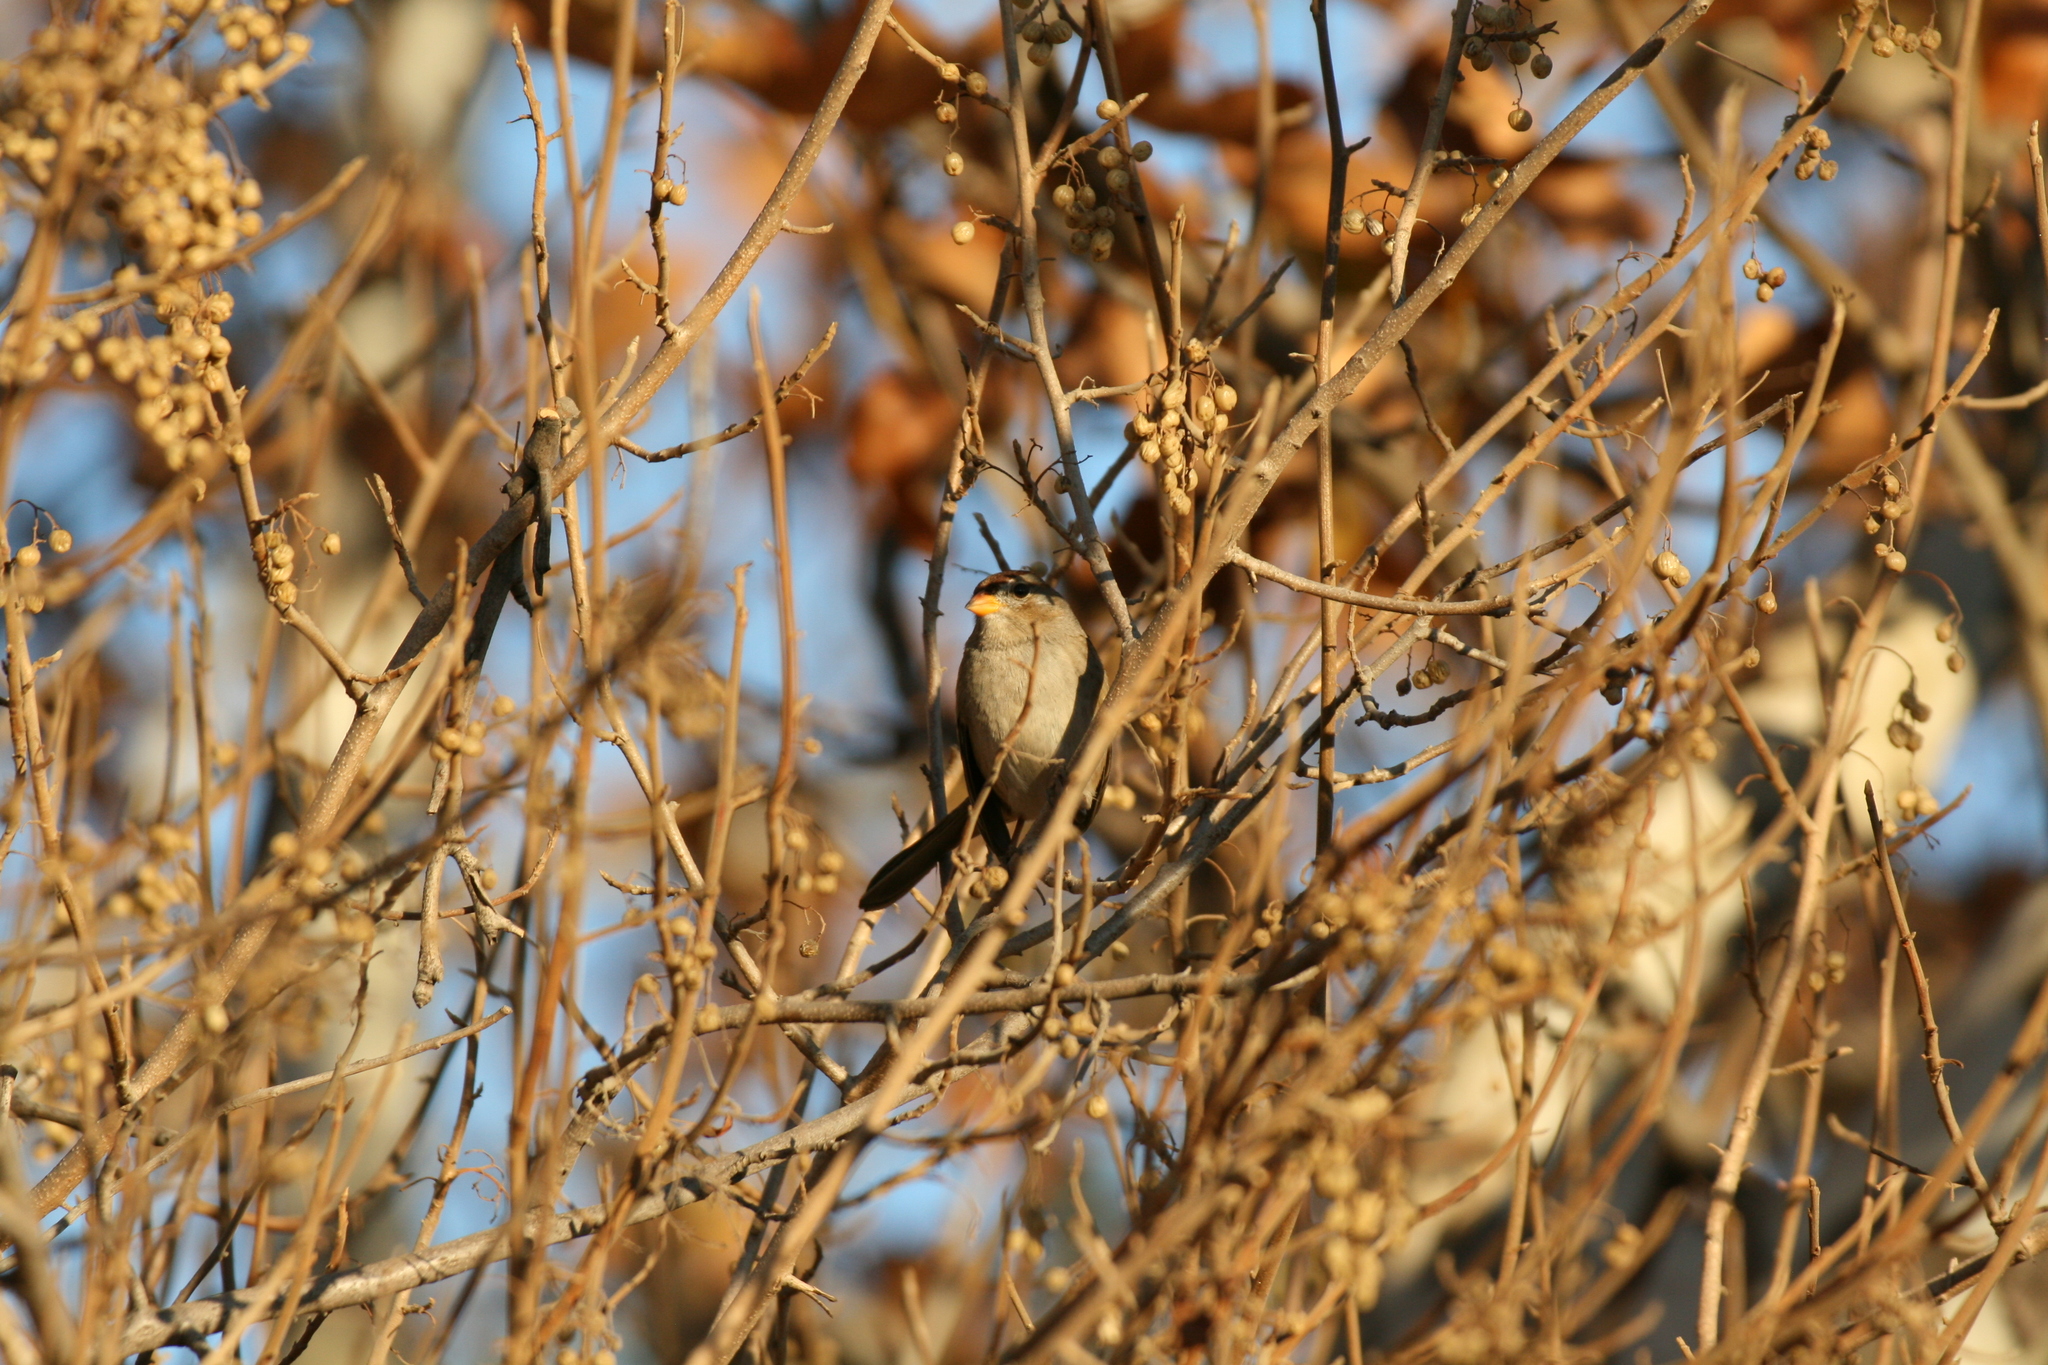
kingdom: Animalia
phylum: Chordata
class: Aves
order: Passeriformes
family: Passerellidae
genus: Zonotrichia
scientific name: Zonotrichia leucophrys
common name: White-crowned sparrow
